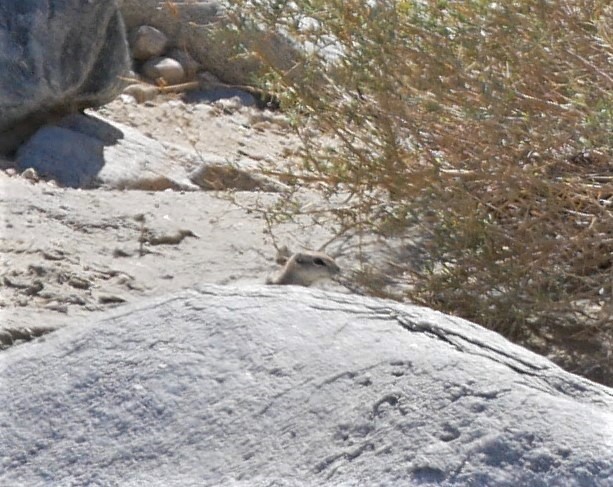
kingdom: Animalia
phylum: Chordata
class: Mammalia
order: Rodentia
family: Sciuridae
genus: Ammospermophilus
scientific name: Ammospermophilus leucurus
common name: White-tailed antelope squirrel
